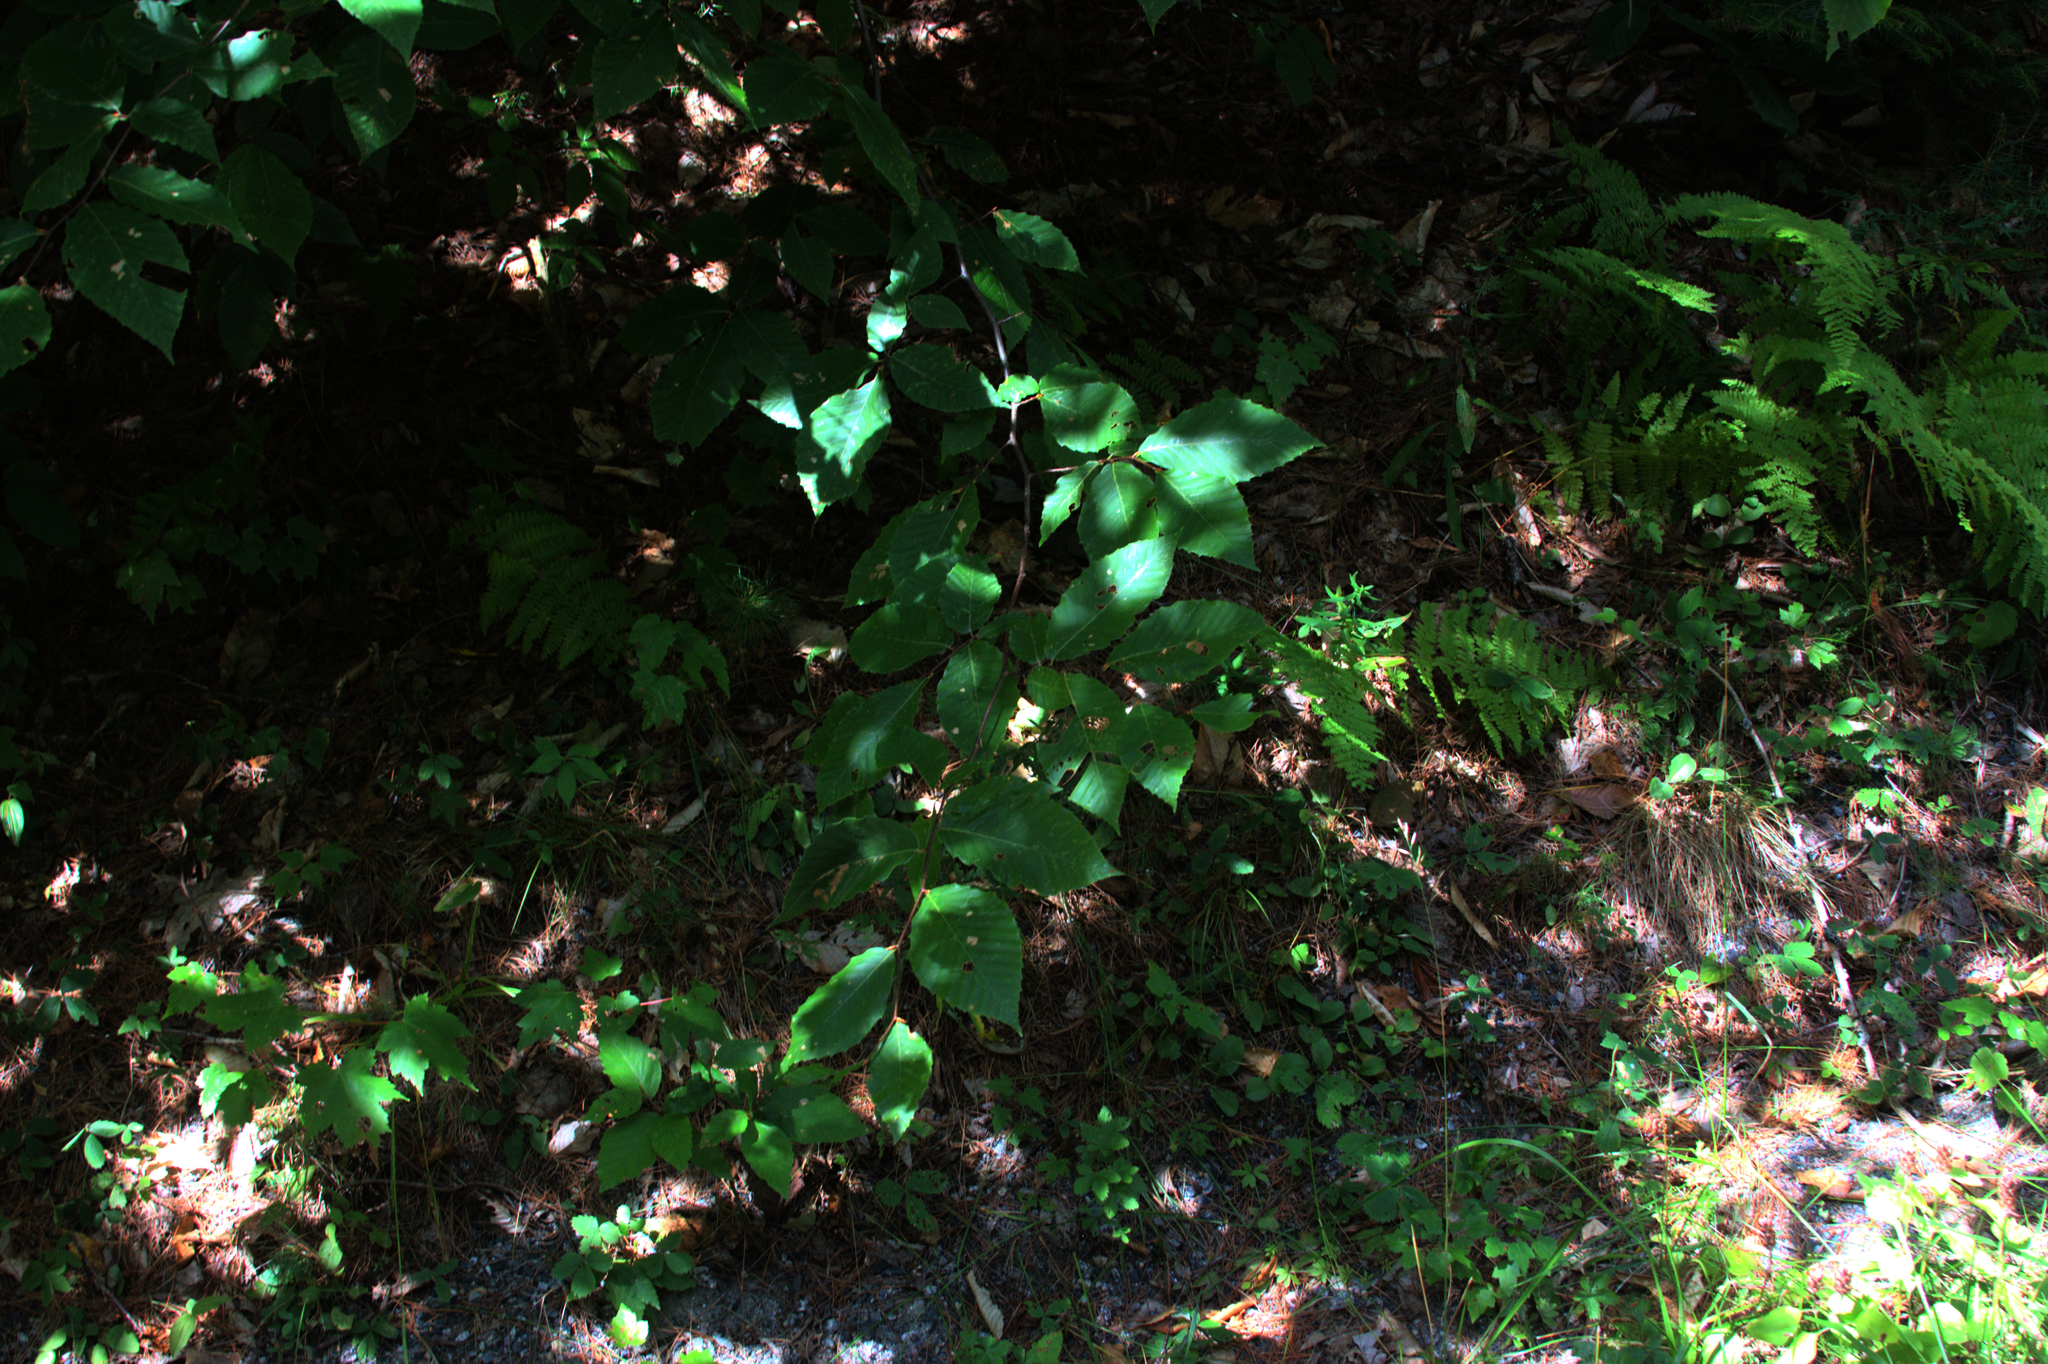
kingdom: Plantae
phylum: Tracheophyta
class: Magnoliopsida
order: Fagales
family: Fagaceae
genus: Fagus
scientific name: Fagus grandifolia
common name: American beech
